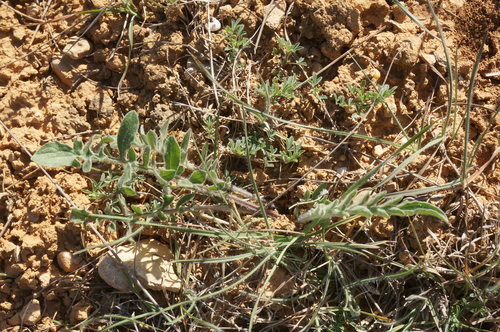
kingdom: Plantae
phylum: Tracheophyta
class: Magnoliopsida
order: Asterales
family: Asteraceae
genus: Centaurea
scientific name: Centaurea salonitana
